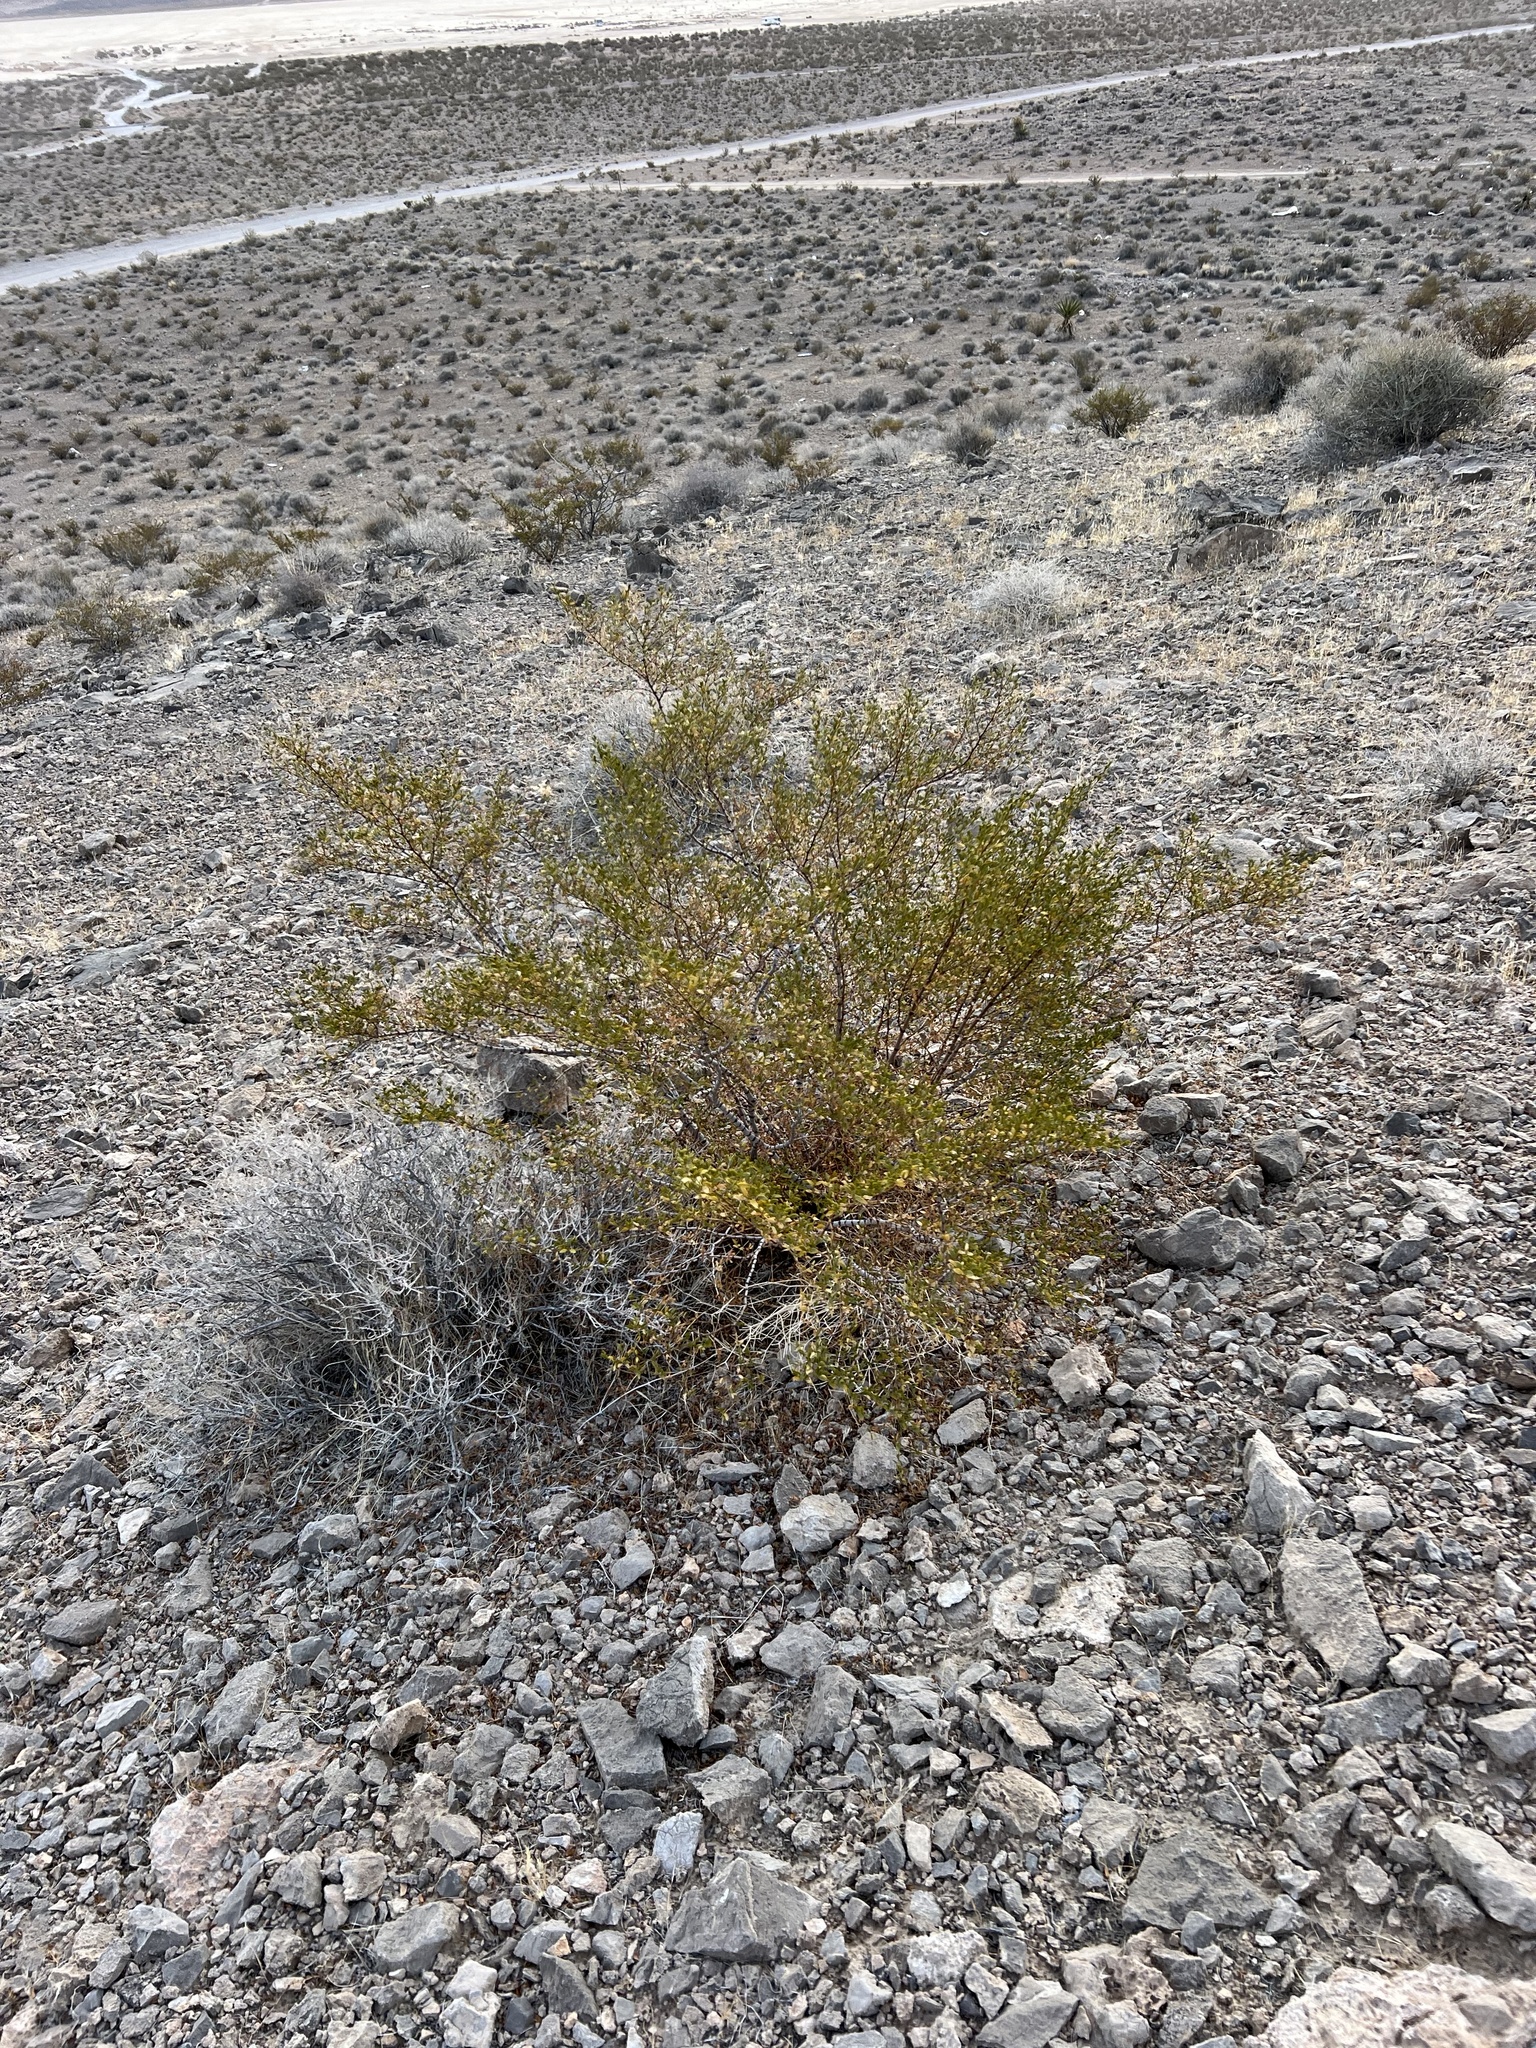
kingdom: Plantae
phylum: Tracheophyta
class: Magnoliopsida
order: Zygophyllales
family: Zygophyllaceae
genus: Larrea
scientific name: Larrea tridentata
